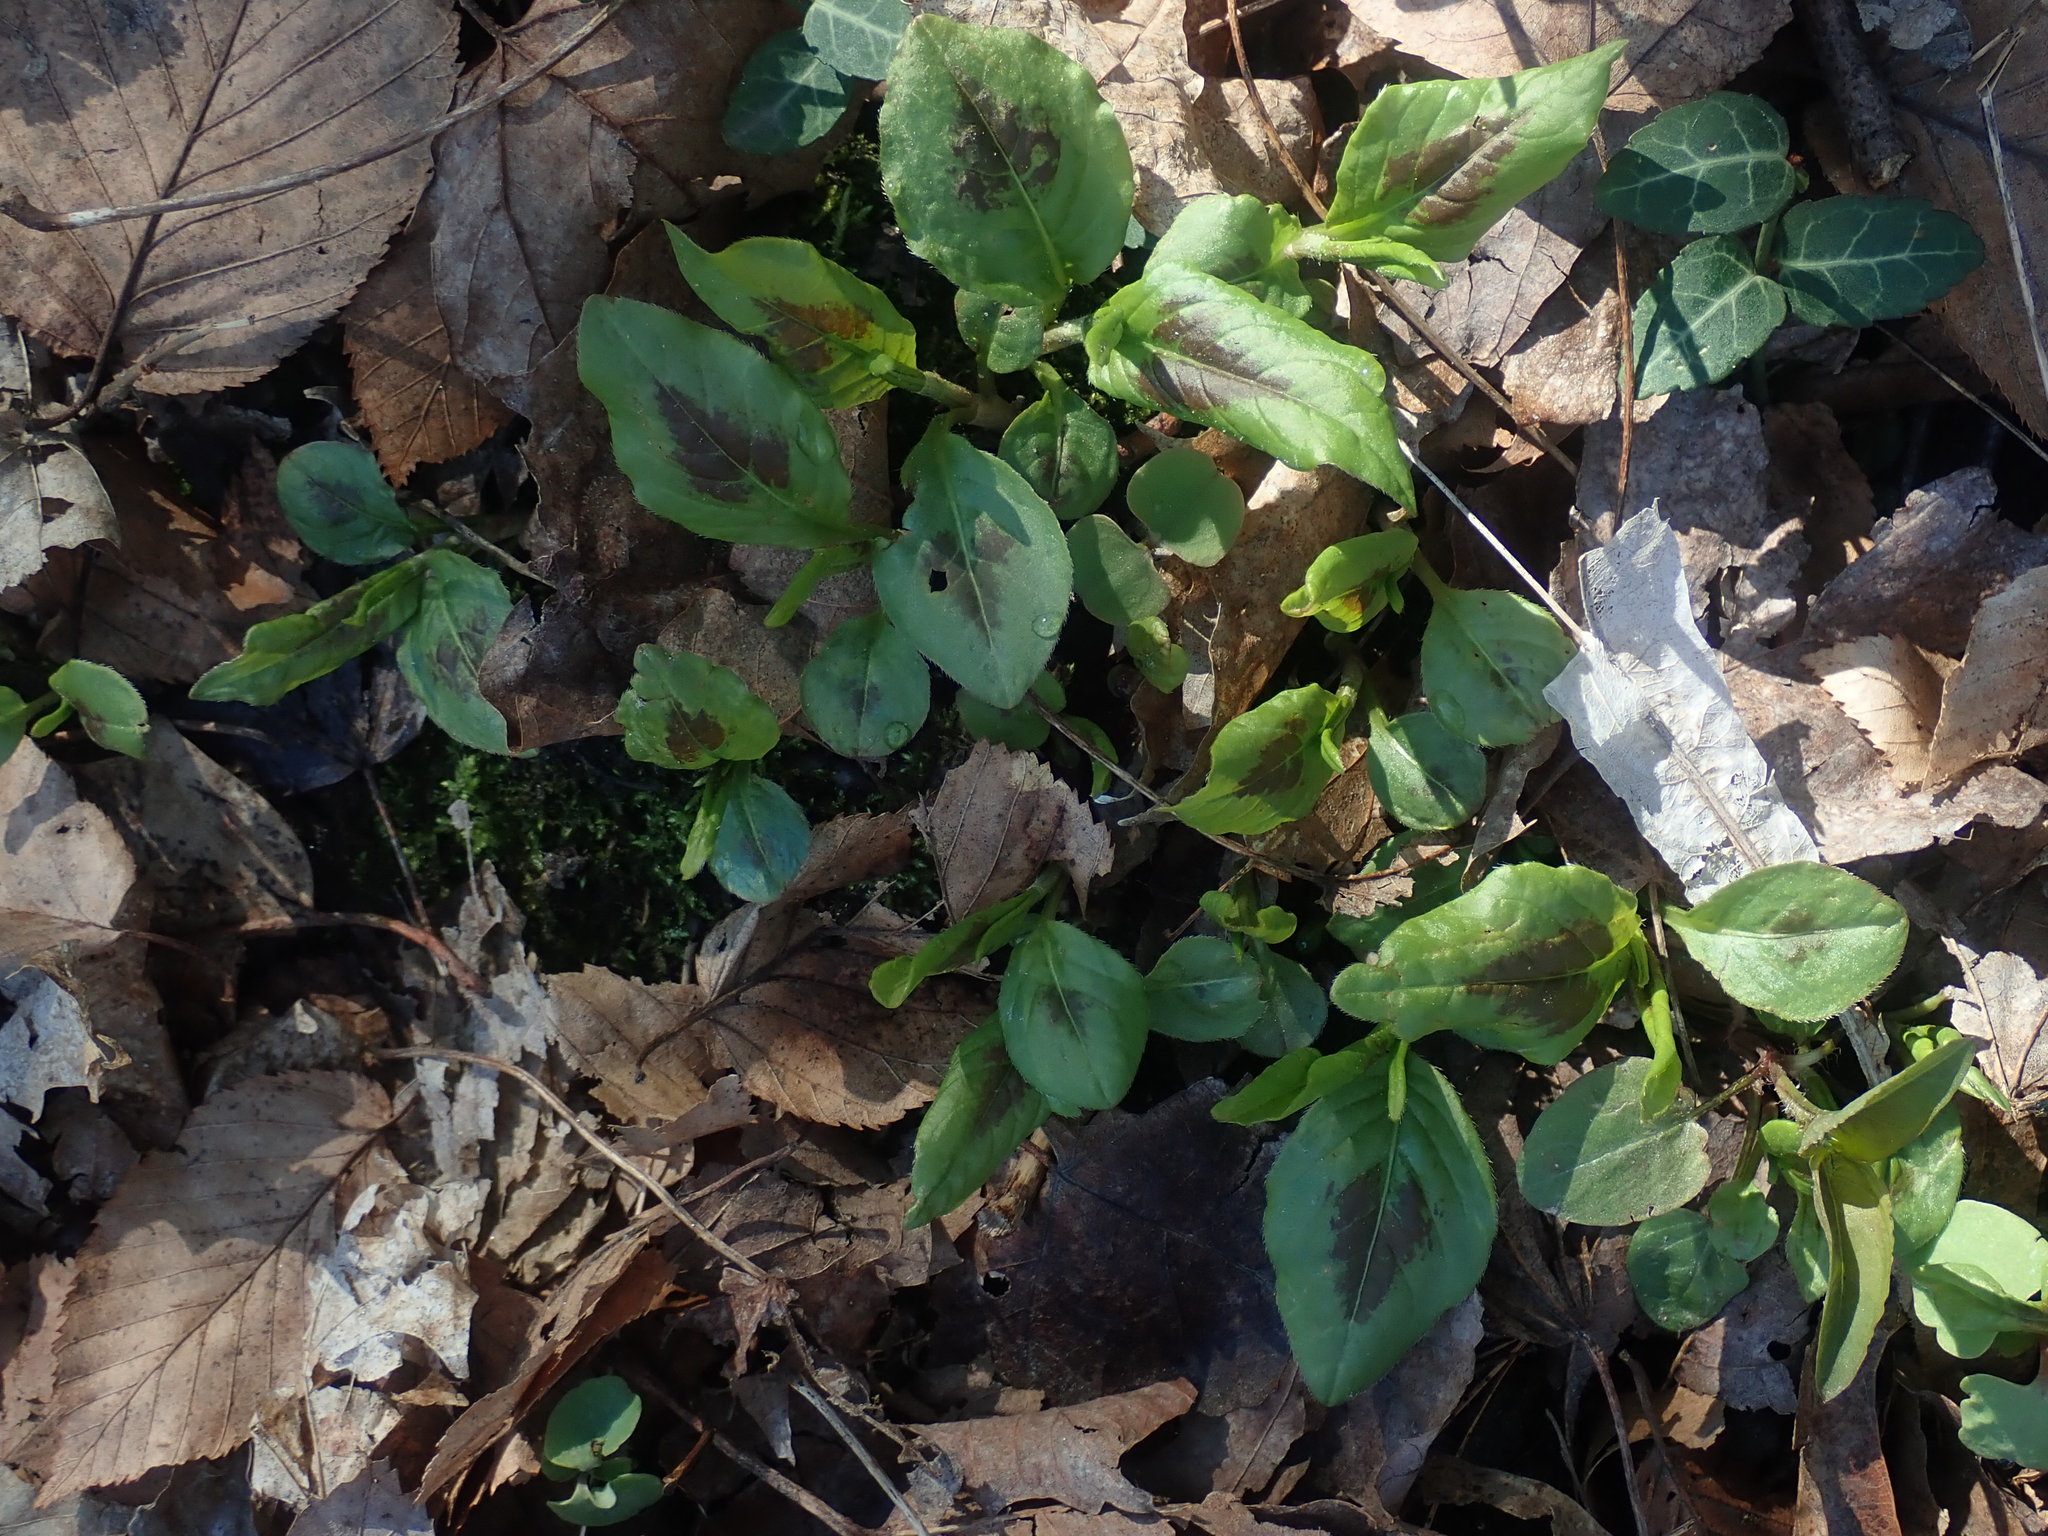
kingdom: Plantae
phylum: Tracheophyta
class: Magnoliopsida
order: Caryophyllales
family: Polygonaceae
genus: Persicaria
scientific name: Persicaria virginiana
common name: Jumpseed
